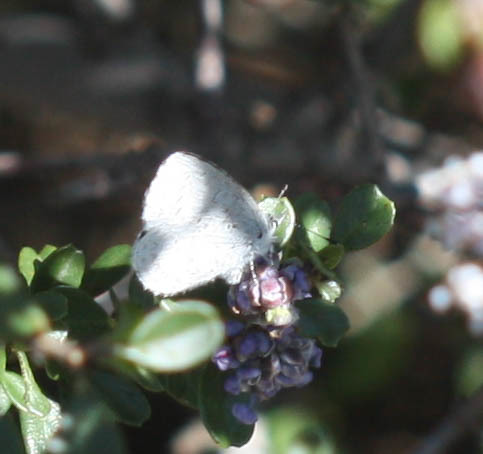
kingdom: Animalia
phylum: Arthropoda
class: Insecta
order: Lepidoptera
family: Lycaenidae
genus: Celastrina
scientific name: Celastrina ladon
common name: Spring azure
